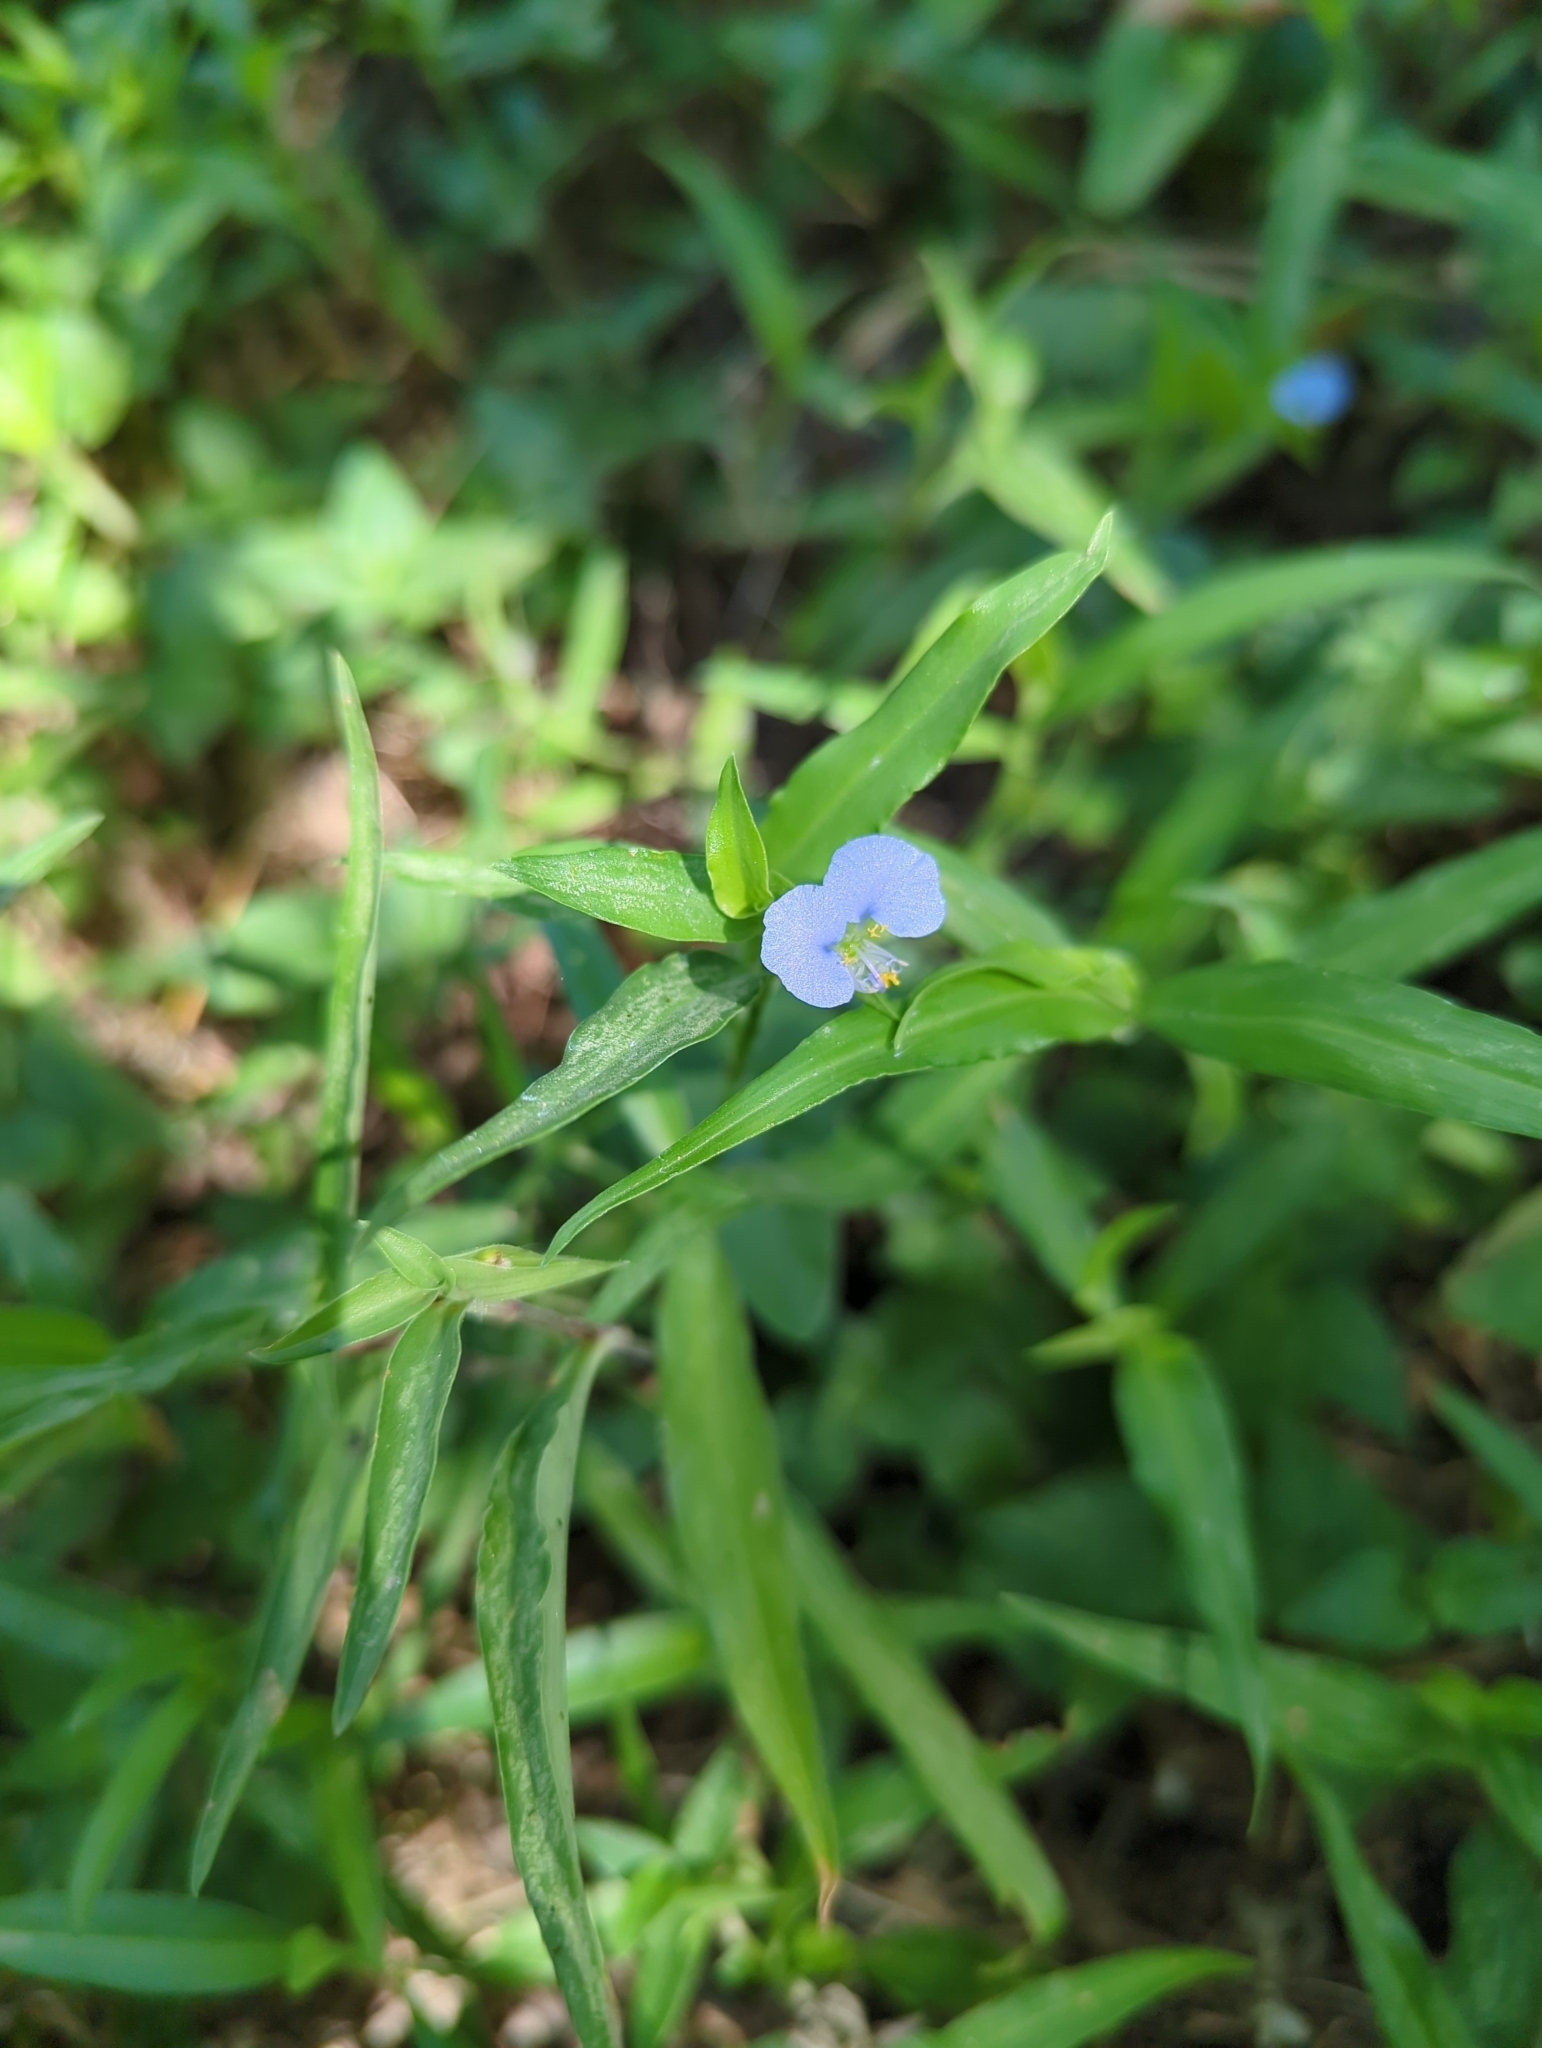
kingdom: Plantae
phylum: Tracheophyta
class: Liliopsida
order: Commelinales
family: Commelinaceae
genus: Commelina
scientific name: Commelina erecta
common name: Blousel blommetjie
